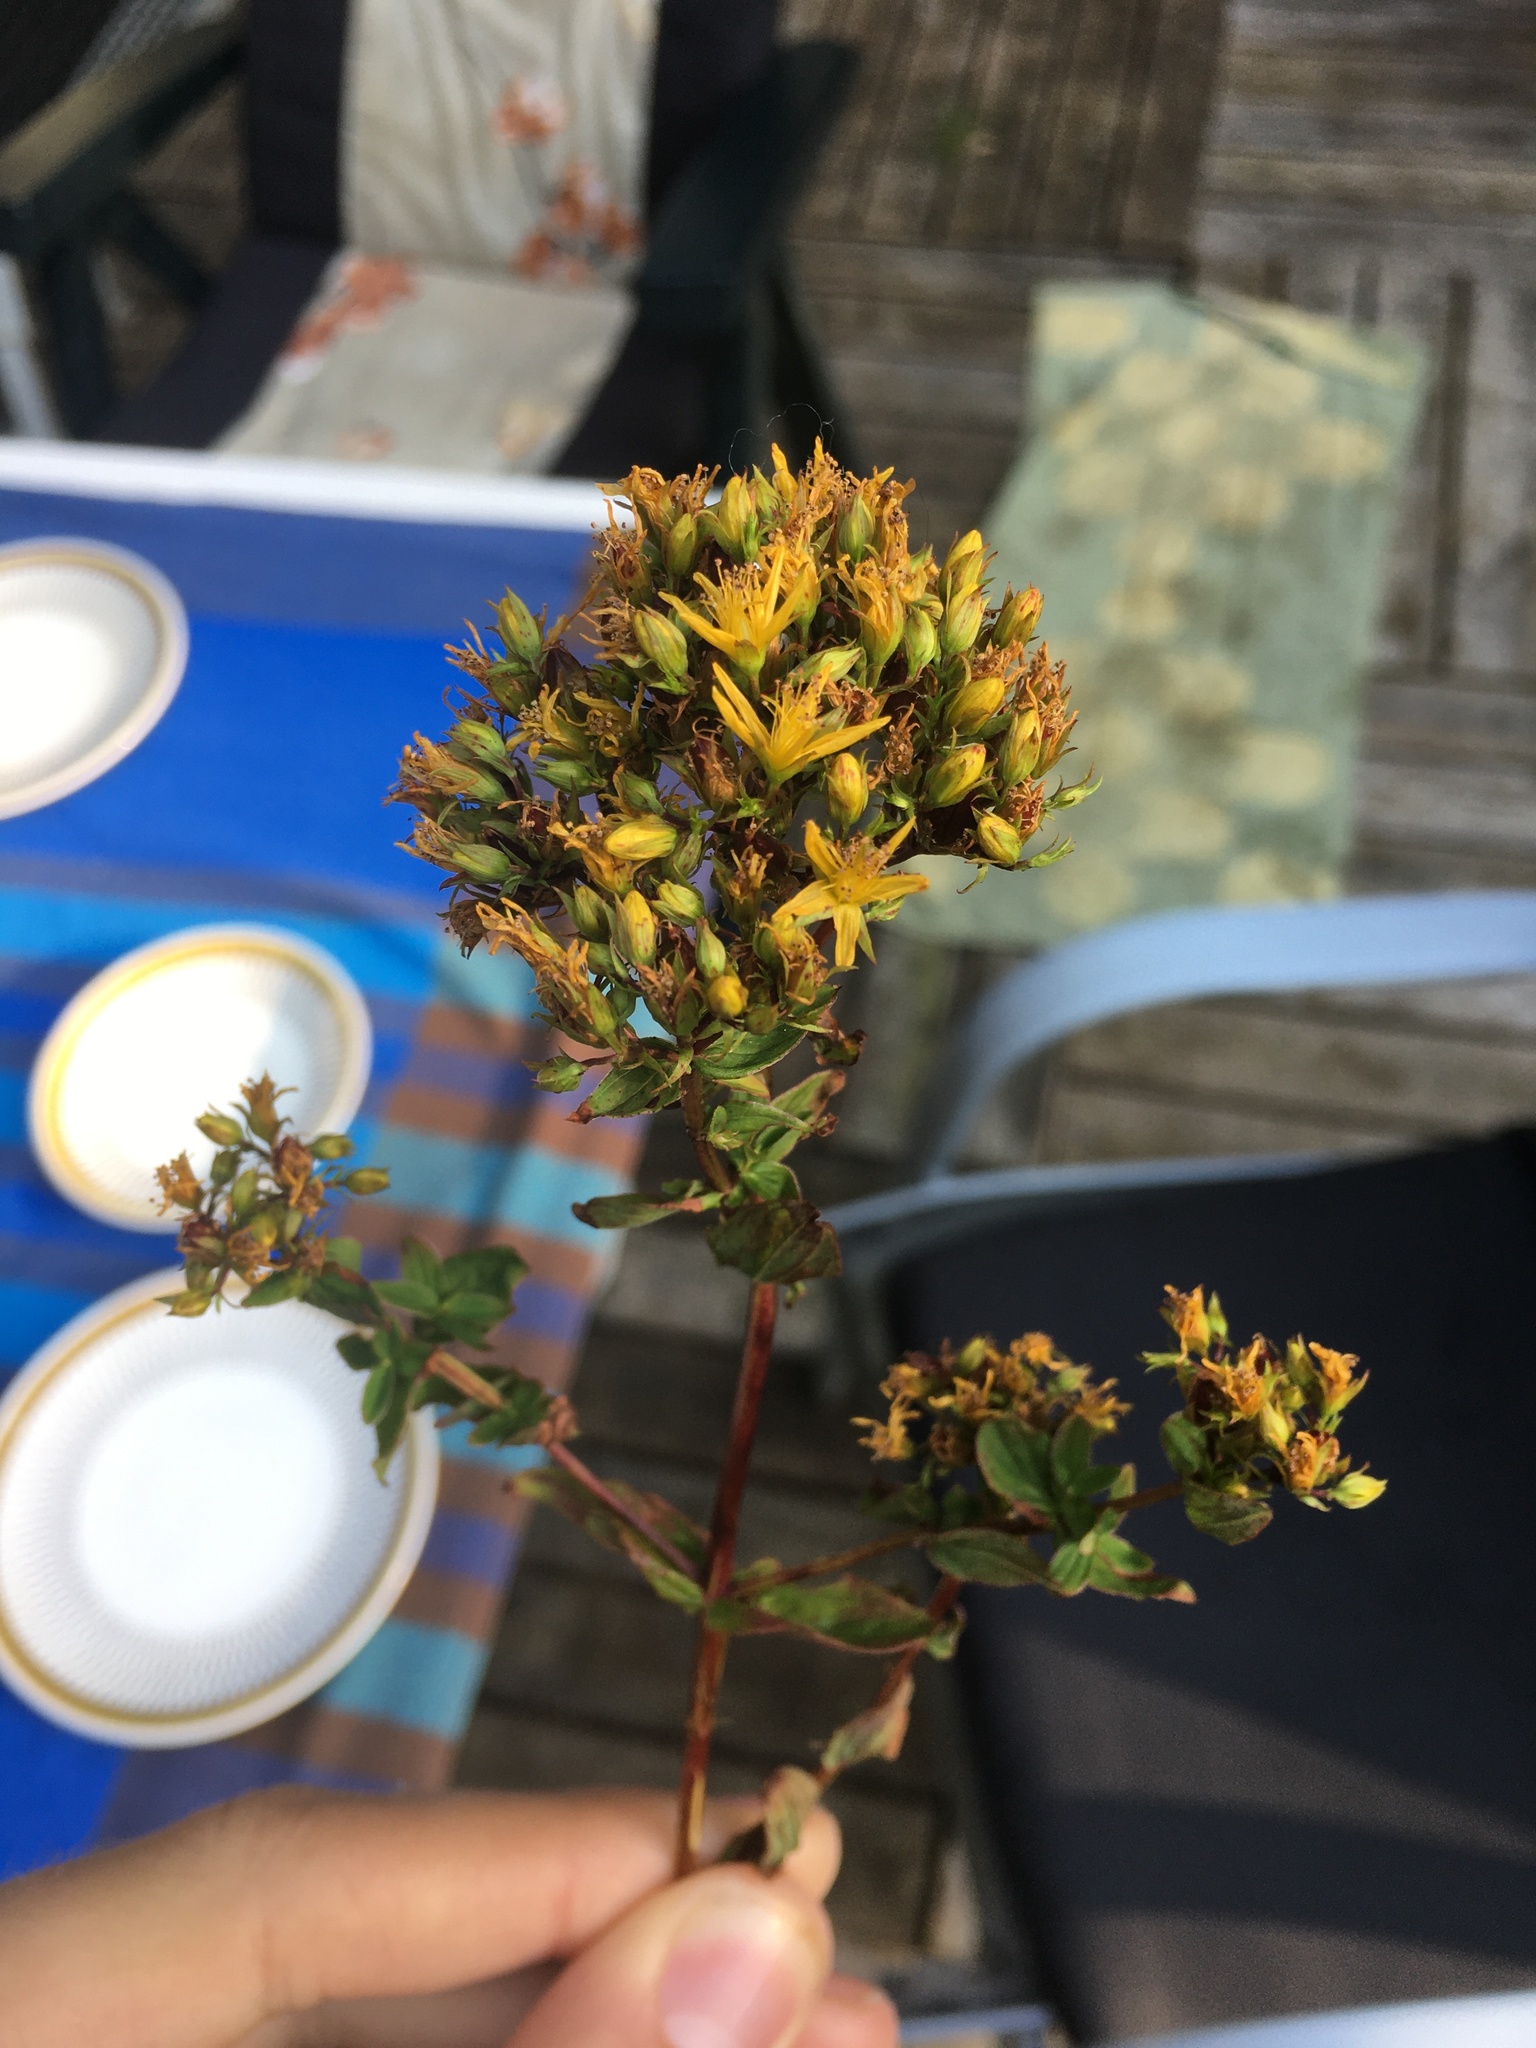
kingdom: Plantae
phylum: Tracheophyta
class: Magnoliopsida
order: Malpighiales
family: Hypericaceae
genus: Hypericum
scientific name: Hypericum tetrapterum
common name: Square-stalked st. john's-wort
